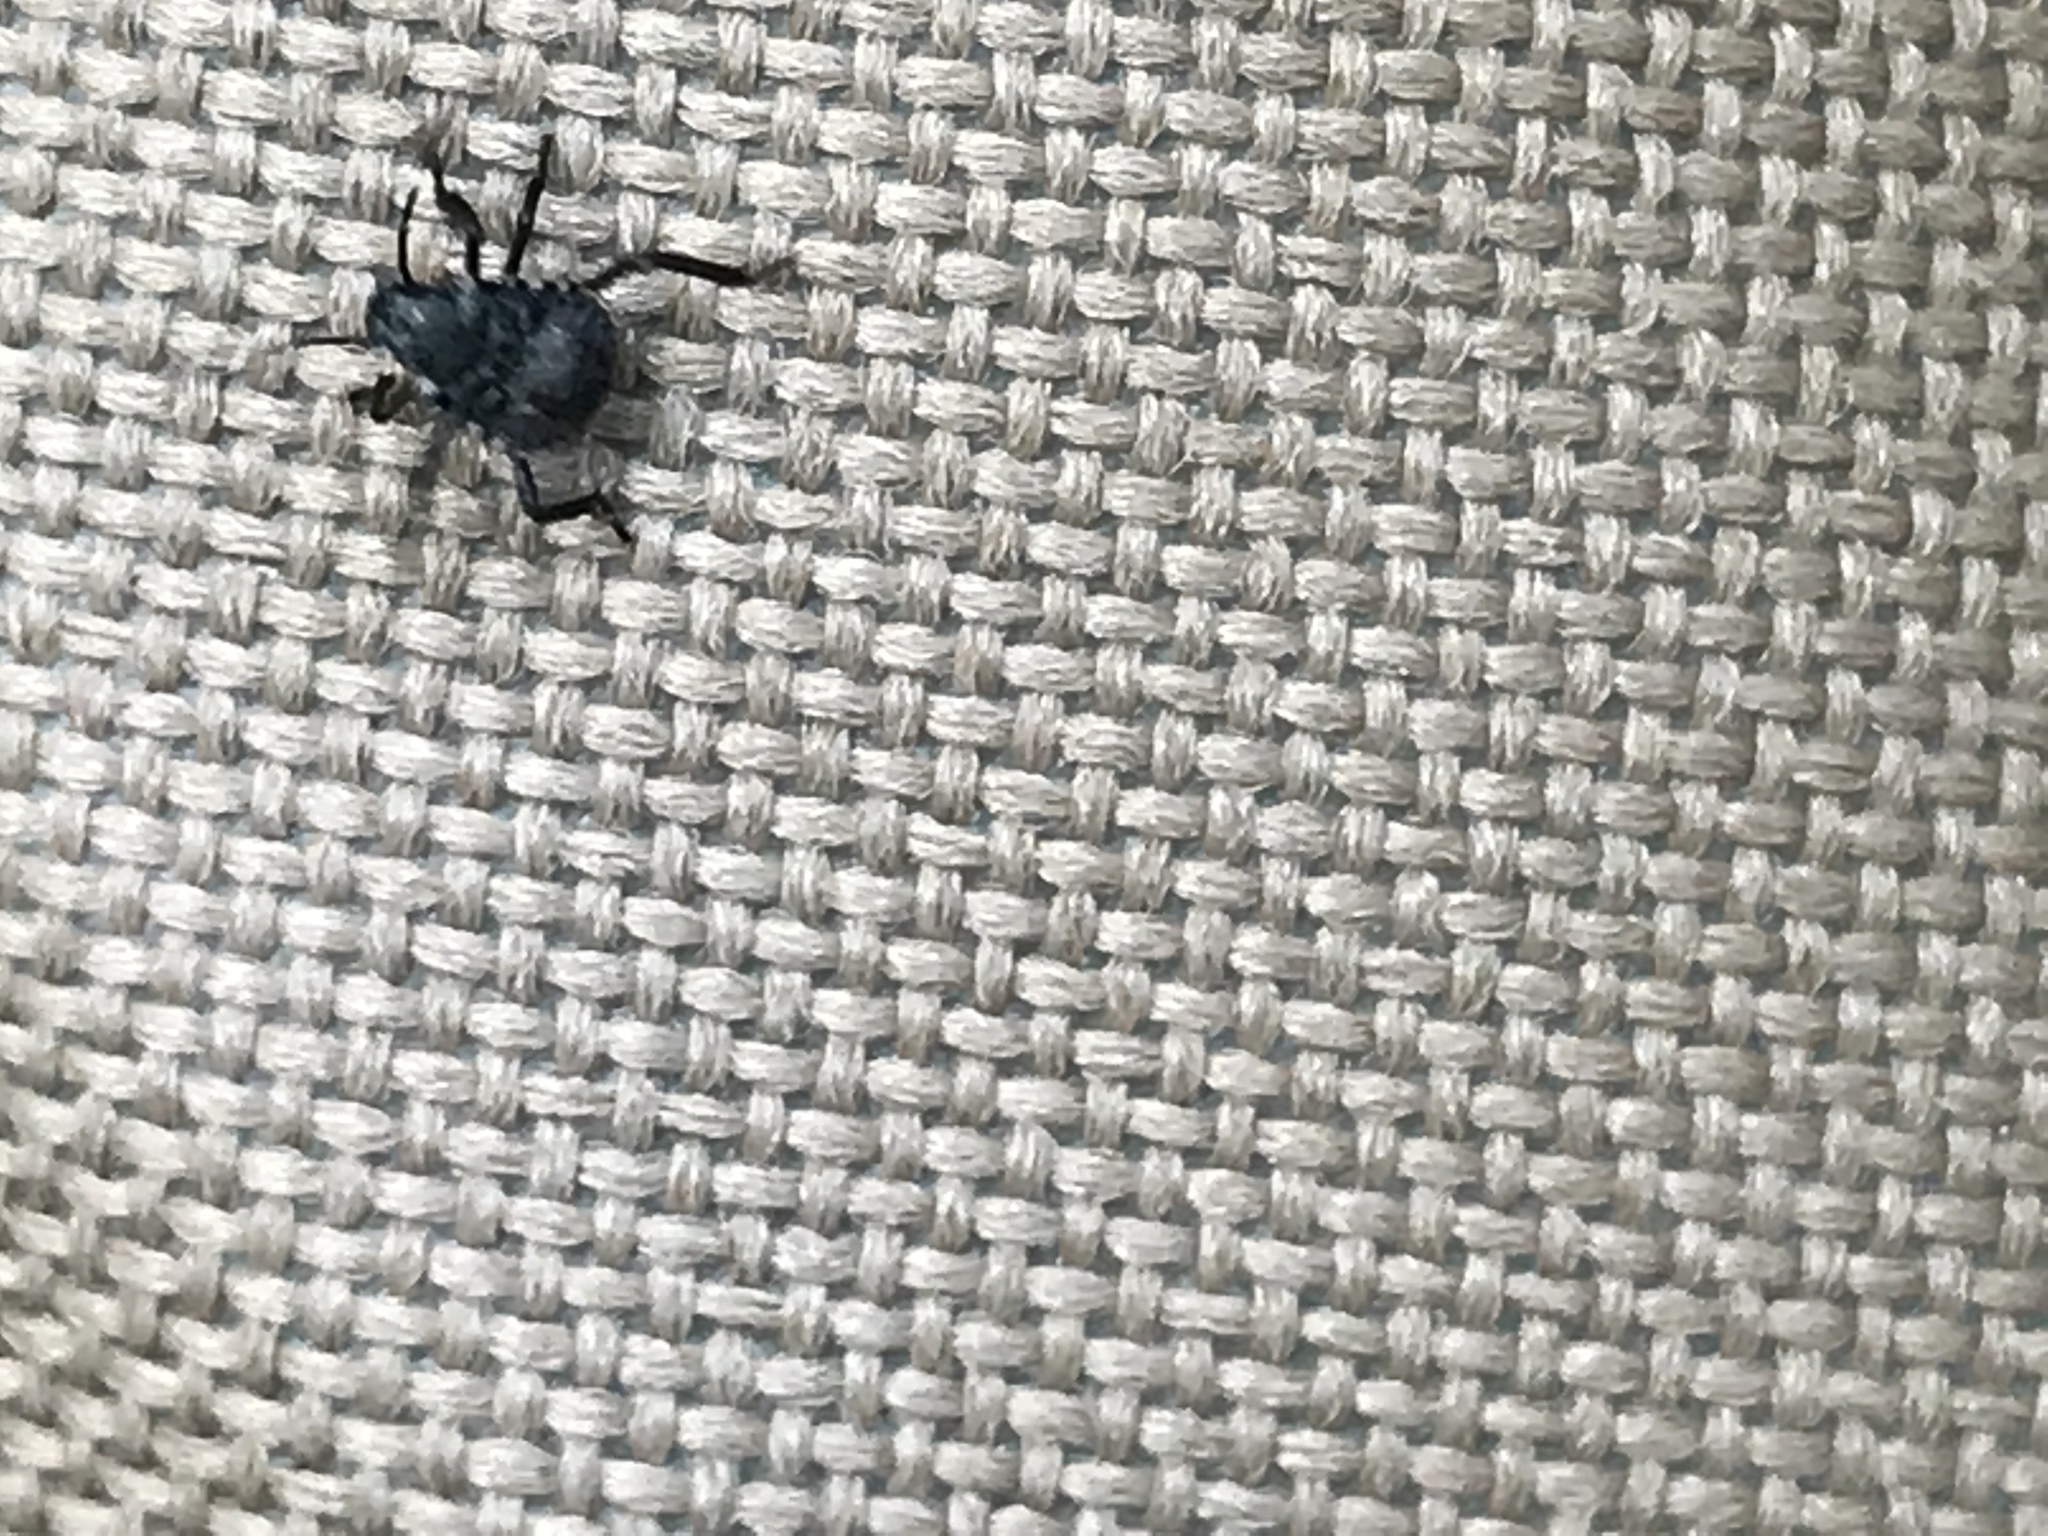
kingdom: Animalia
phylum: Arthropoda
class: Insecta
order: Hemiptera
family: Pentatomidae
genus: Halyomorpha
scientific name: Halyomorpha halys
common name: Brown marmorated stink bug
